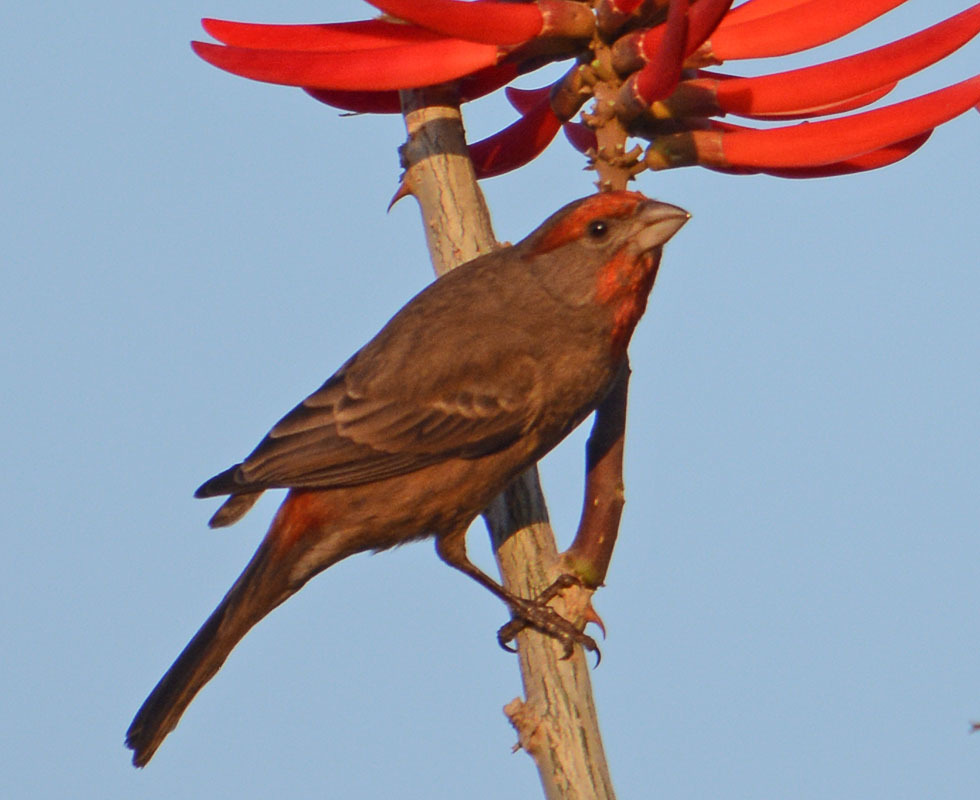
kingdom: Animalia
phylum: Chordata
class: Aves
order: Passeriformes
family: Fringillidae
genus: Haemorhous
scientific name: Haemorhous mexicanus
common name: House finch
